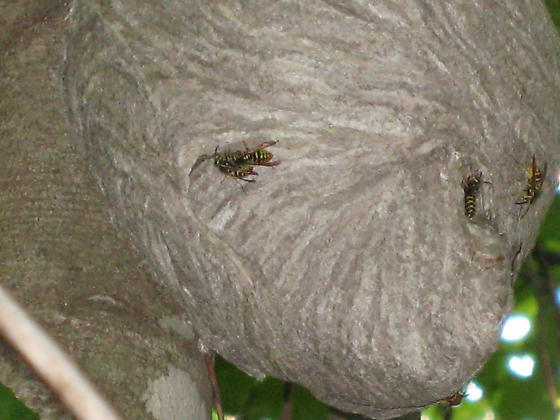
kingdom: Animalia
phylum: Arthropoda
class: Insecta
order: Hymenoptera
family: Vespidae
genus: Dolichovespula
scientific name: Dolichovespula arenaria
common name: Aerial yellowjacket
